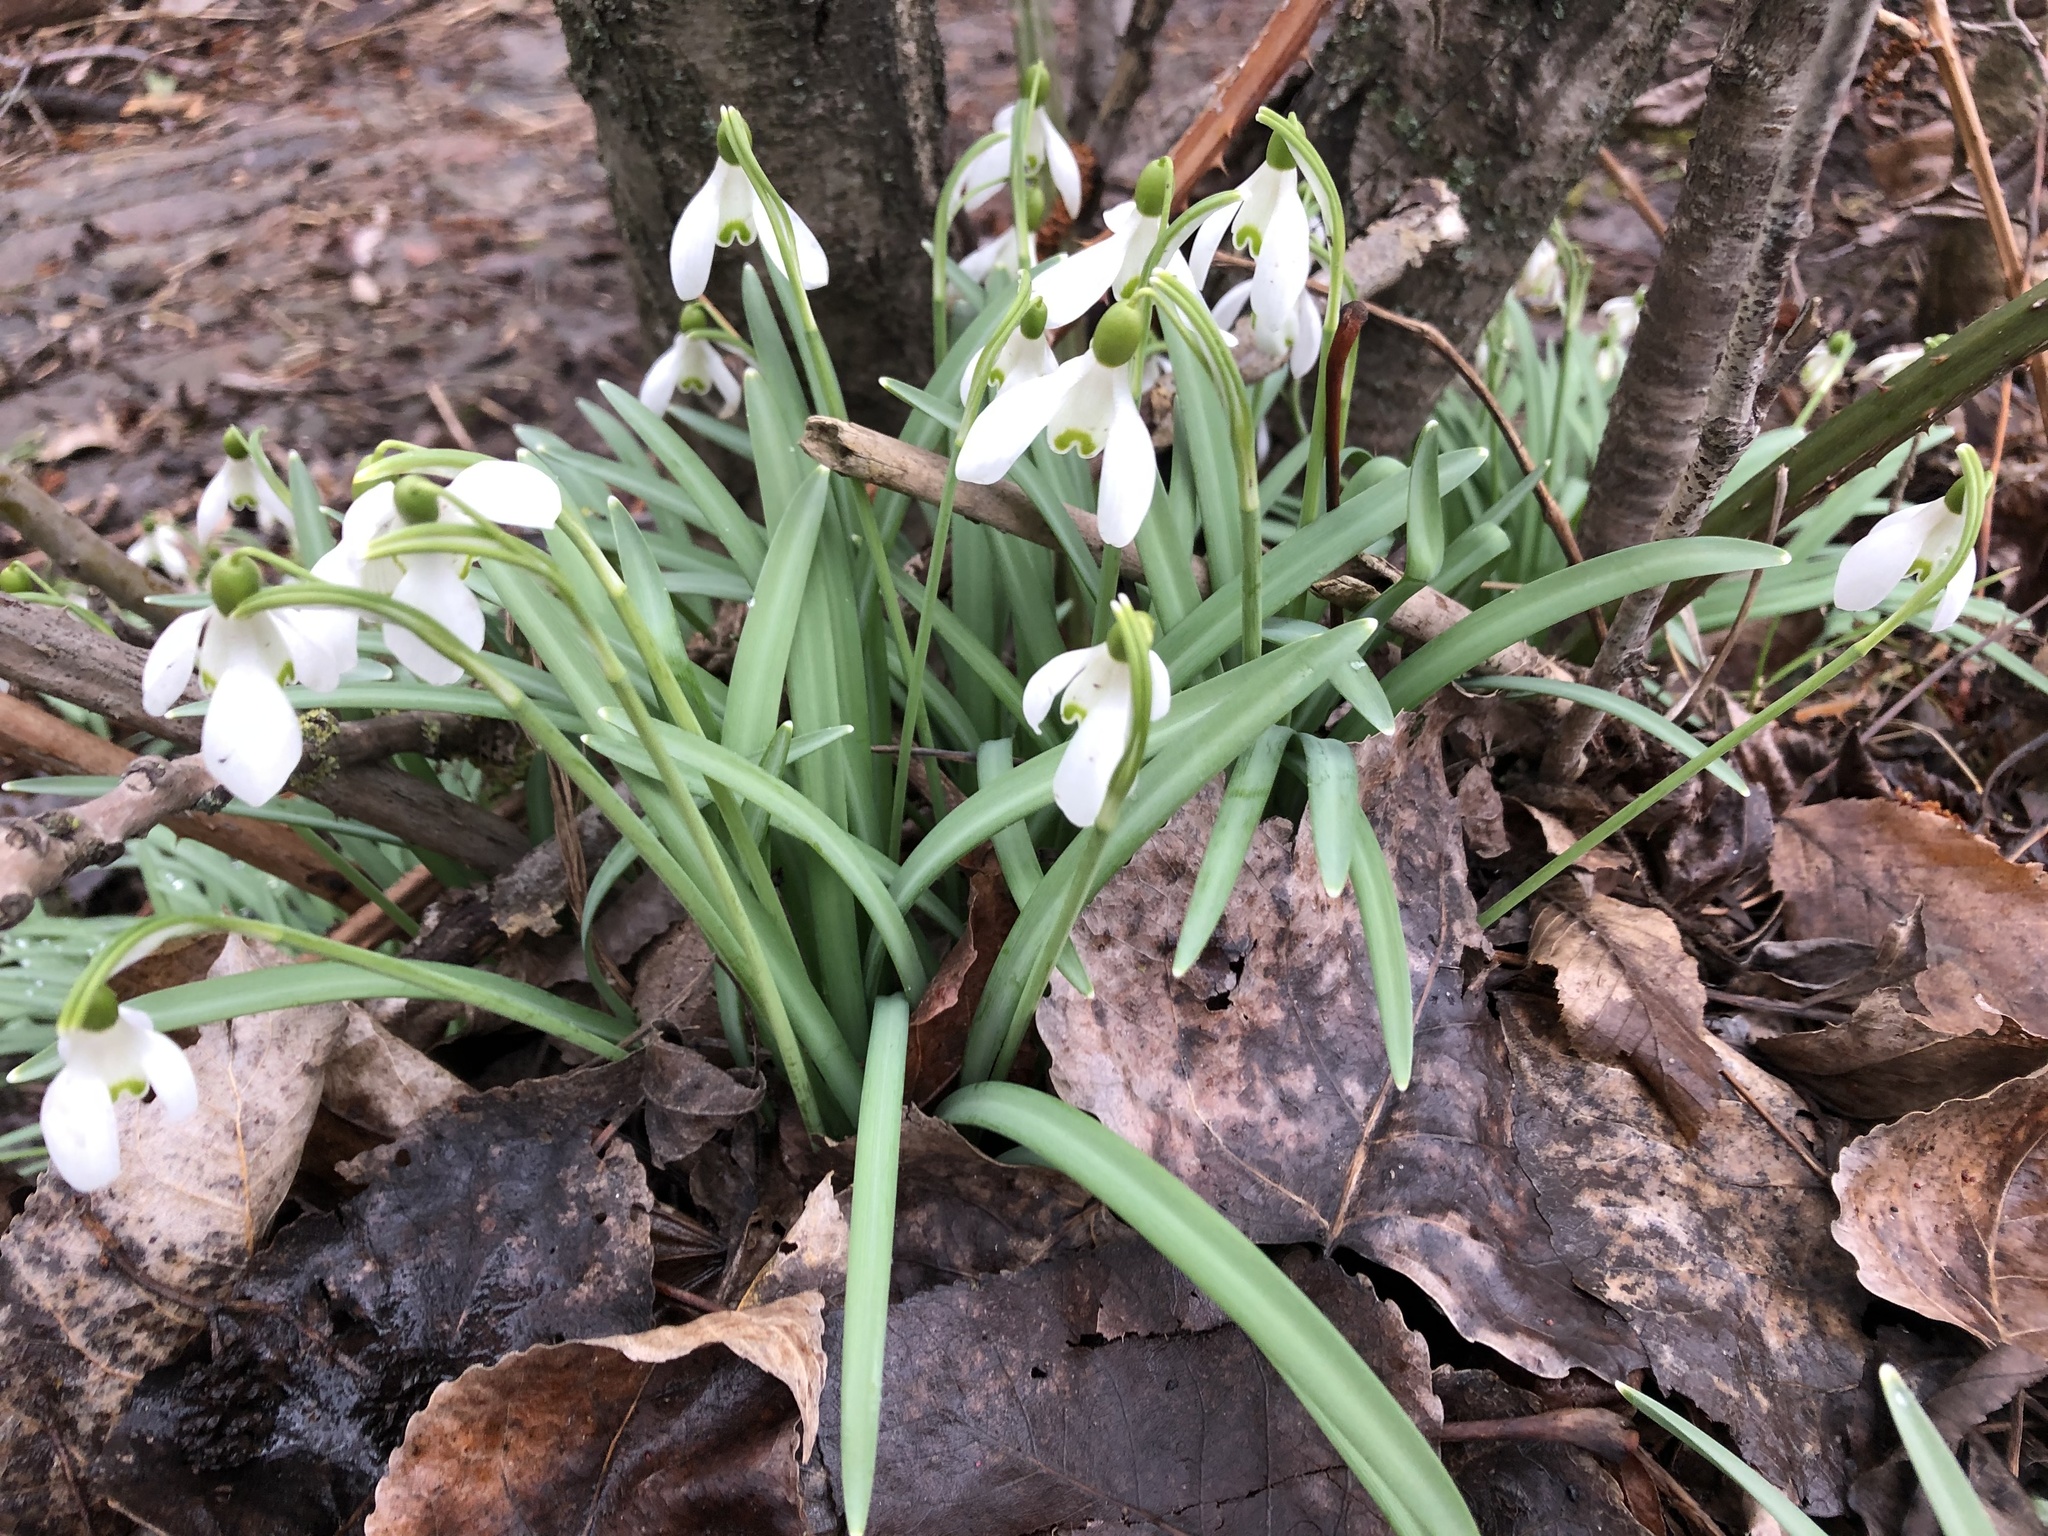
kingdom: Plantae
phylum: Tracheophyta
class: Liliopsida
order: Asparagales
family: Amaryllidaceae
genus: Galanthus
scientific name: Galanthus nivalis
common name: Snowdrop
